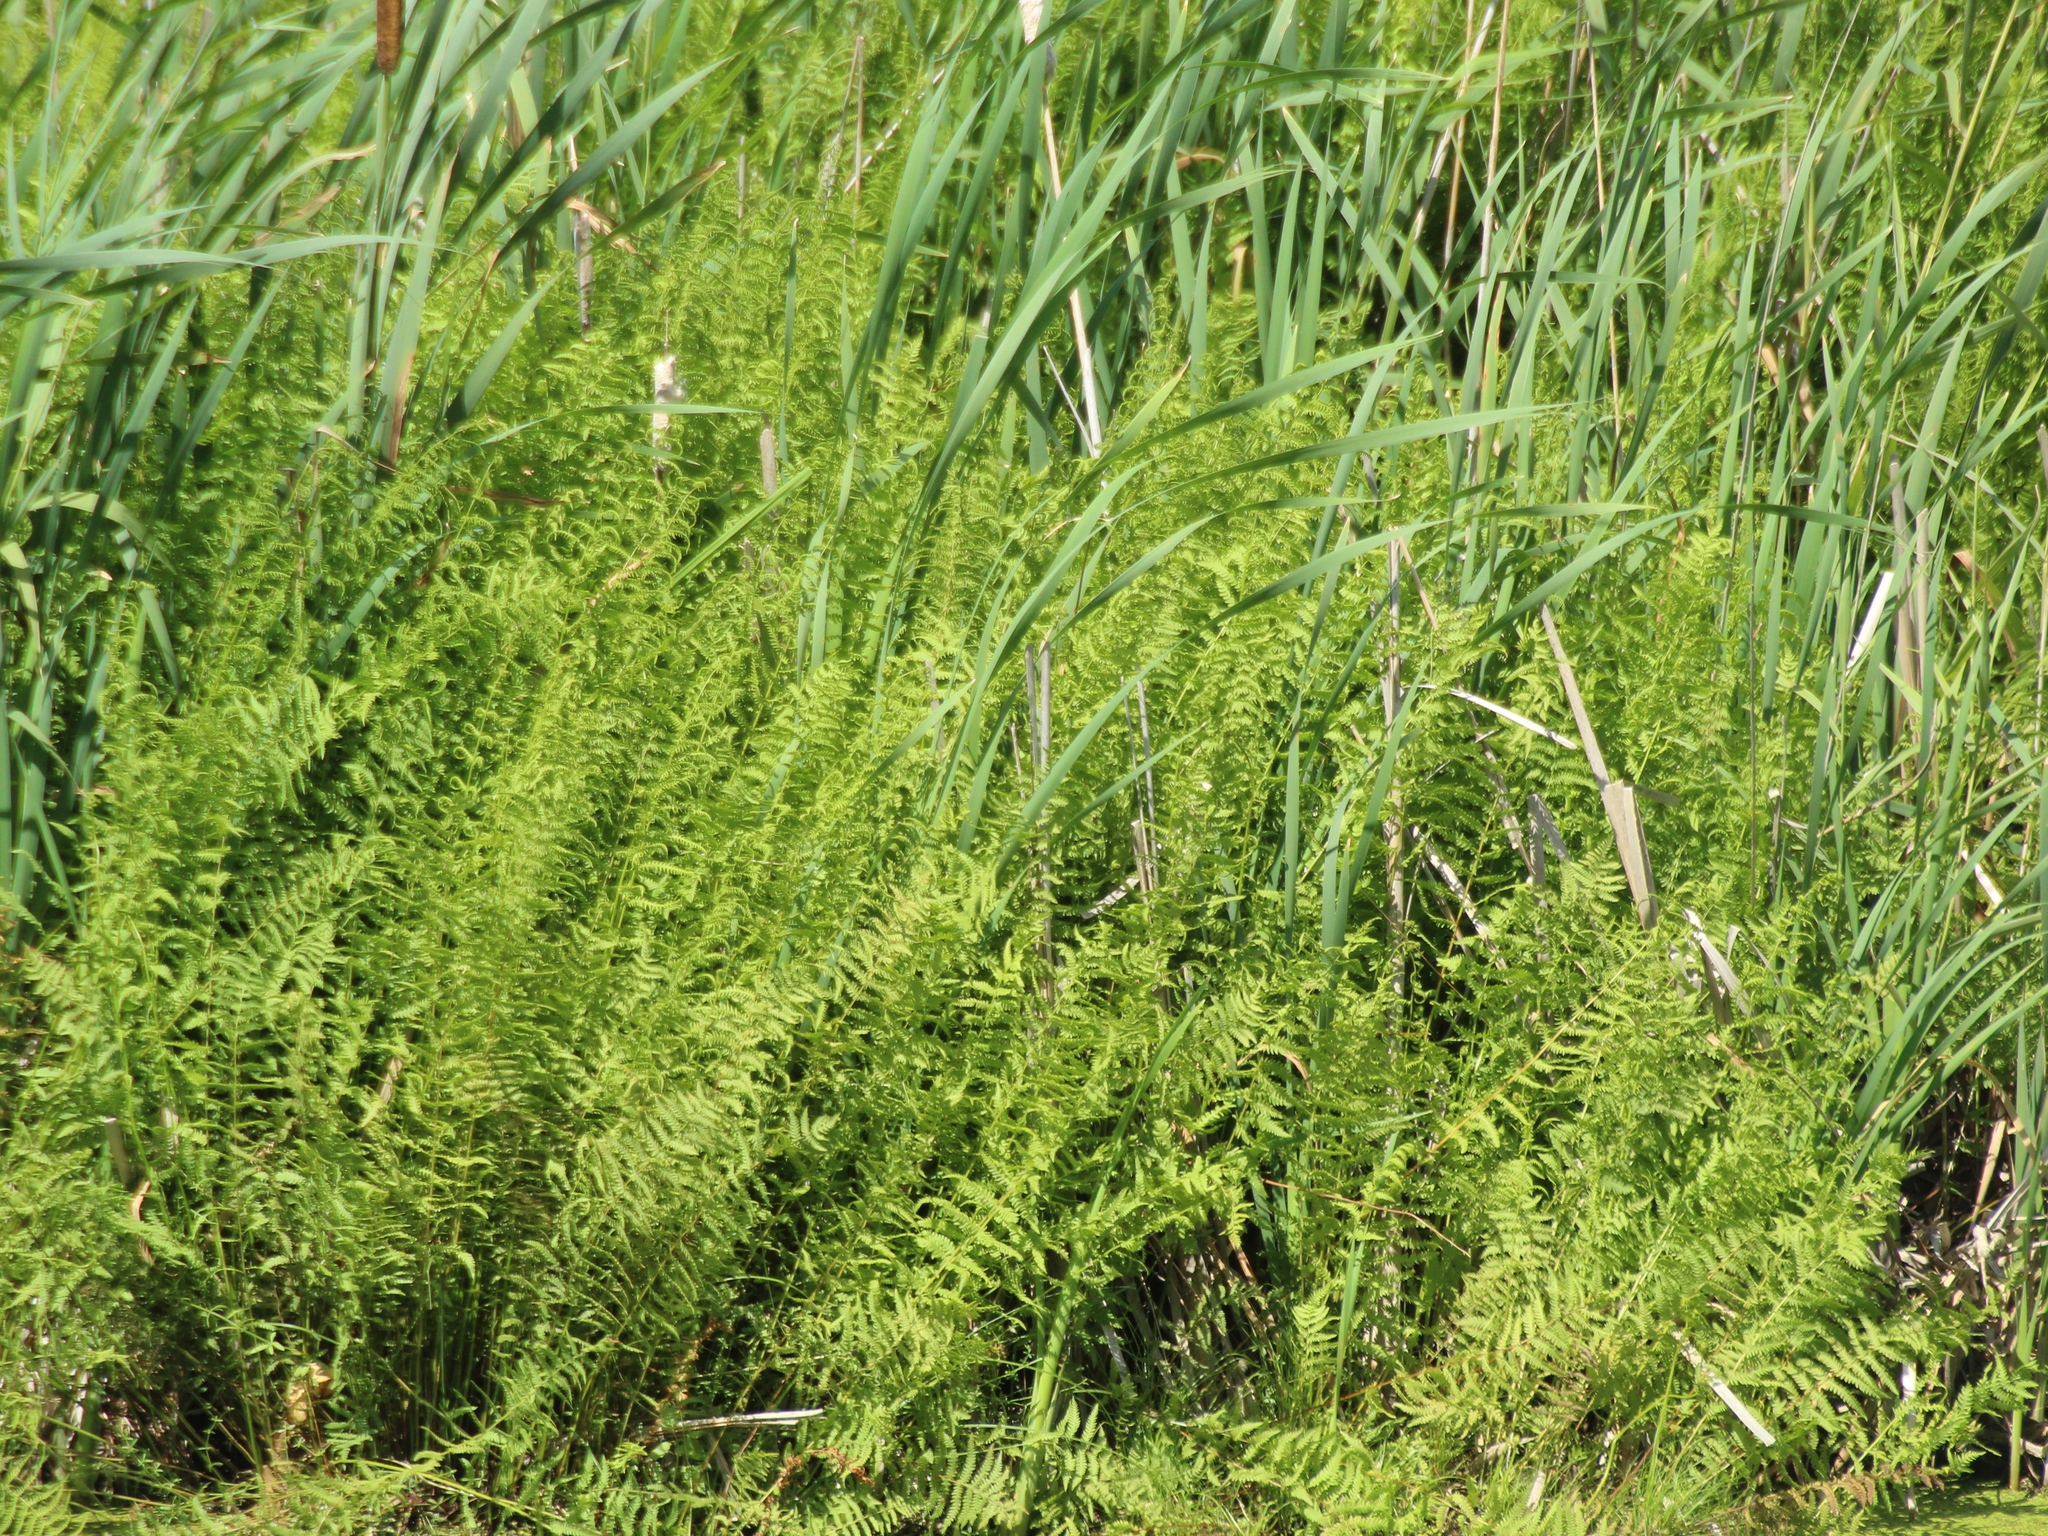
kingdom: Plantae
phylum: Tracheophyta
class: Polypodiopsida
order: Polypodiales
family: Thelypteridaceae
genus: Thelypteris
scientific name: Thelypteris palustris
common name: Marsh fern
